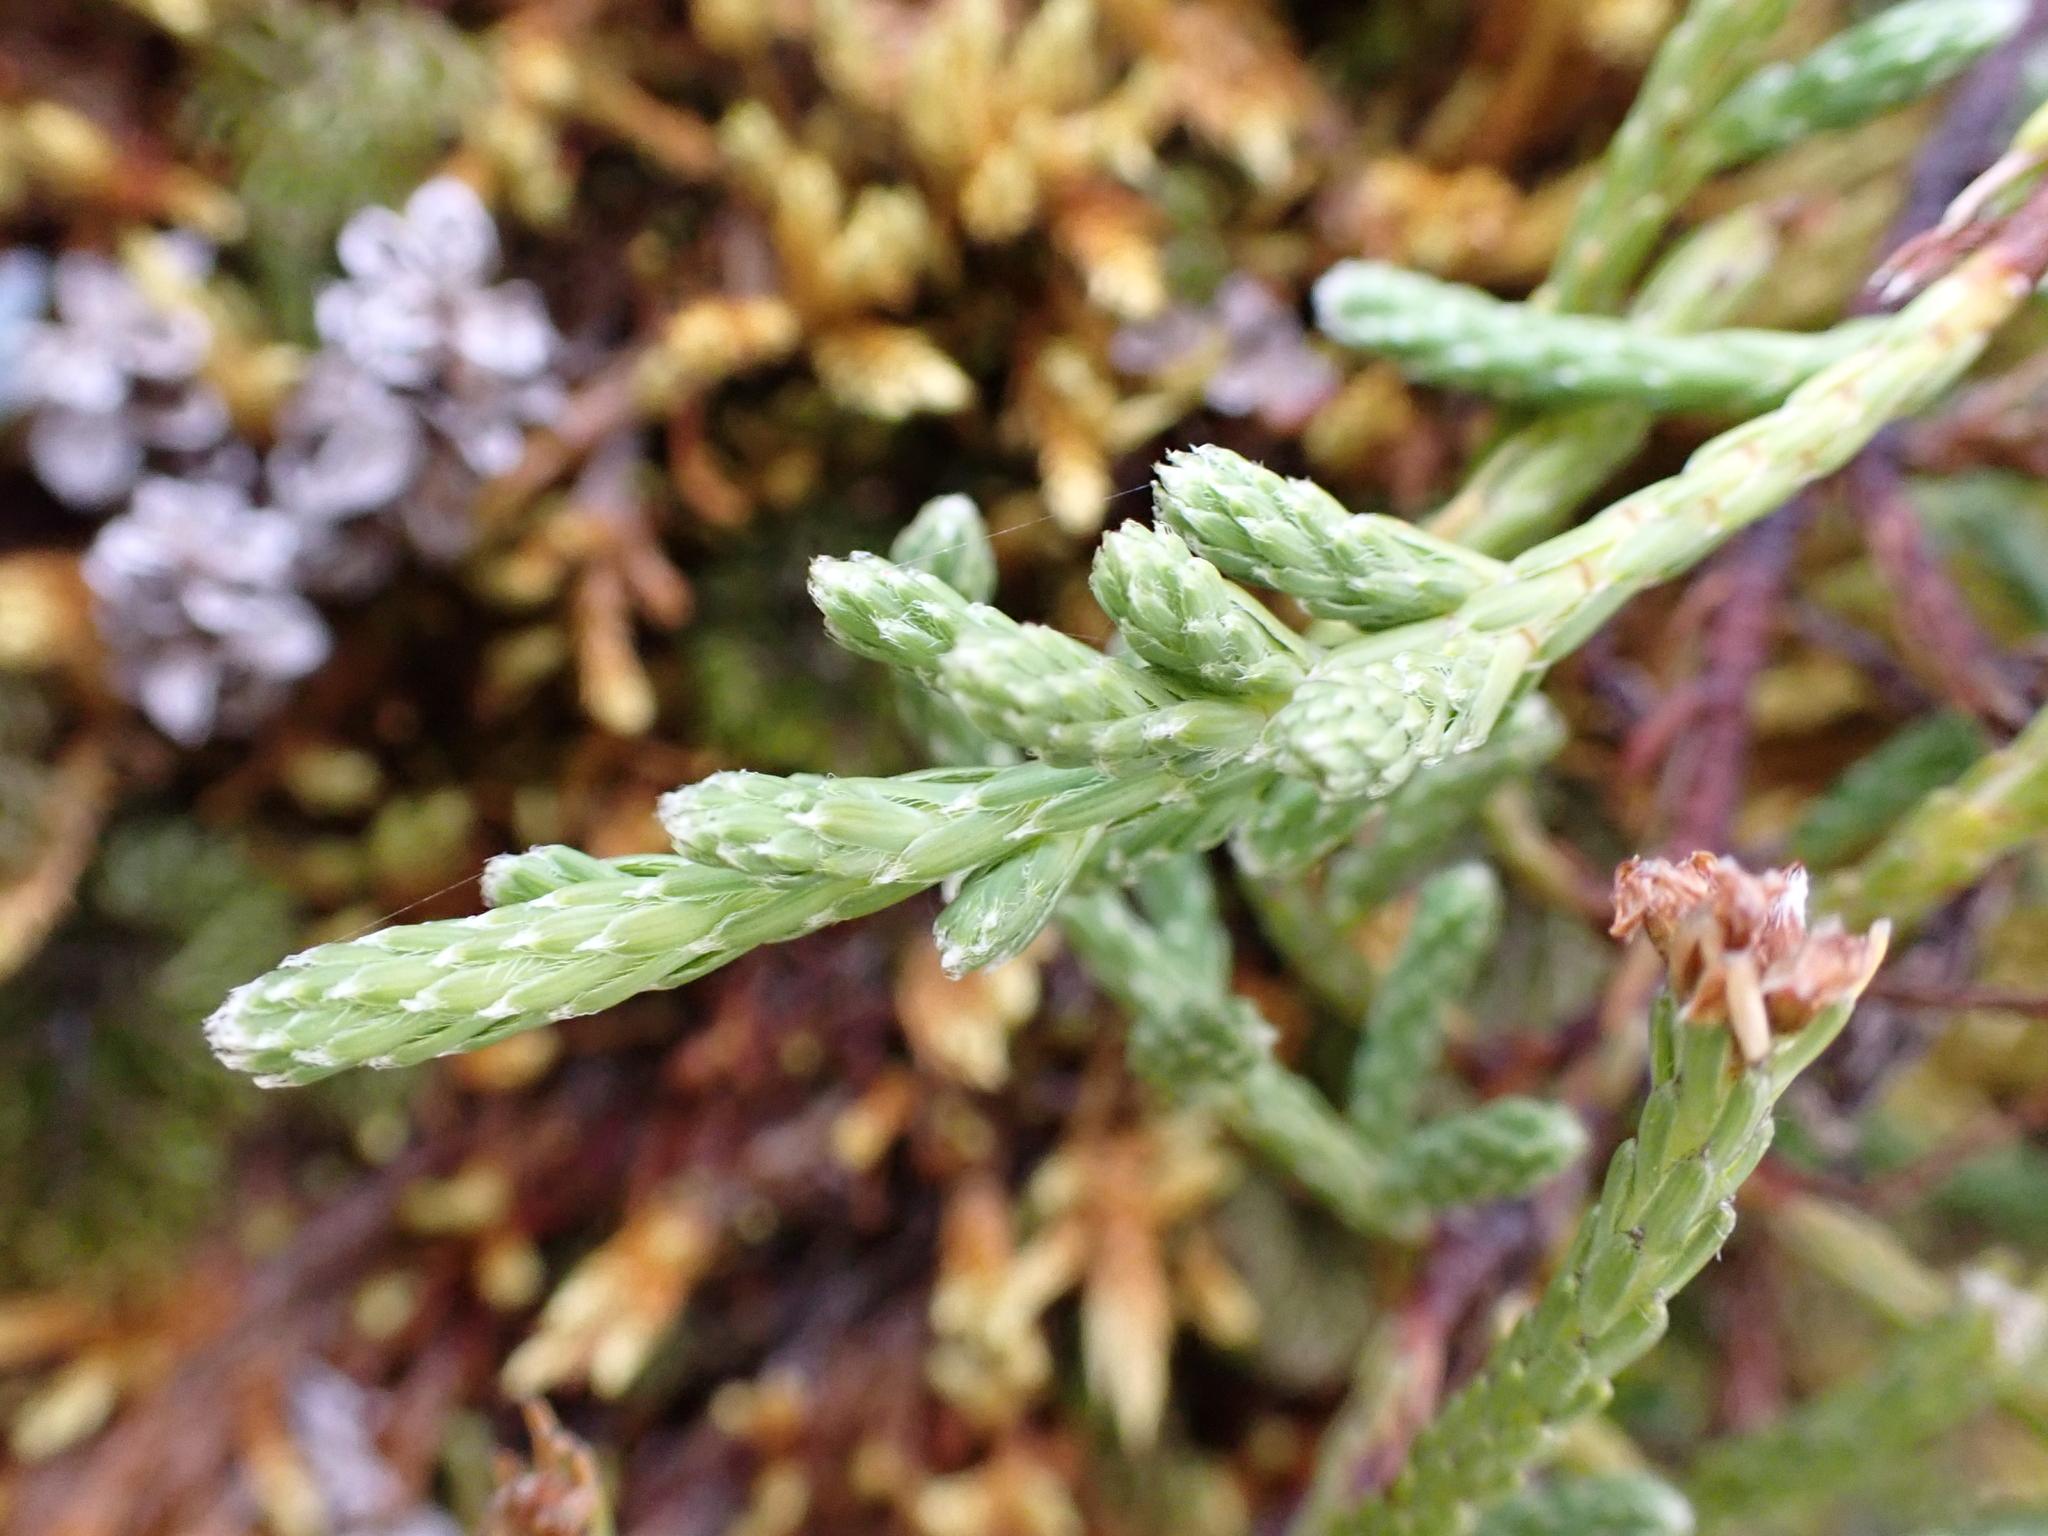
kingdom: Plantae
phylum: Tracheophyta
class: Magnoliopsida
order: Malvales
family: Thymelaeaceae
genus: Kelleria
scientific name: Kelleria dieffenbachii
